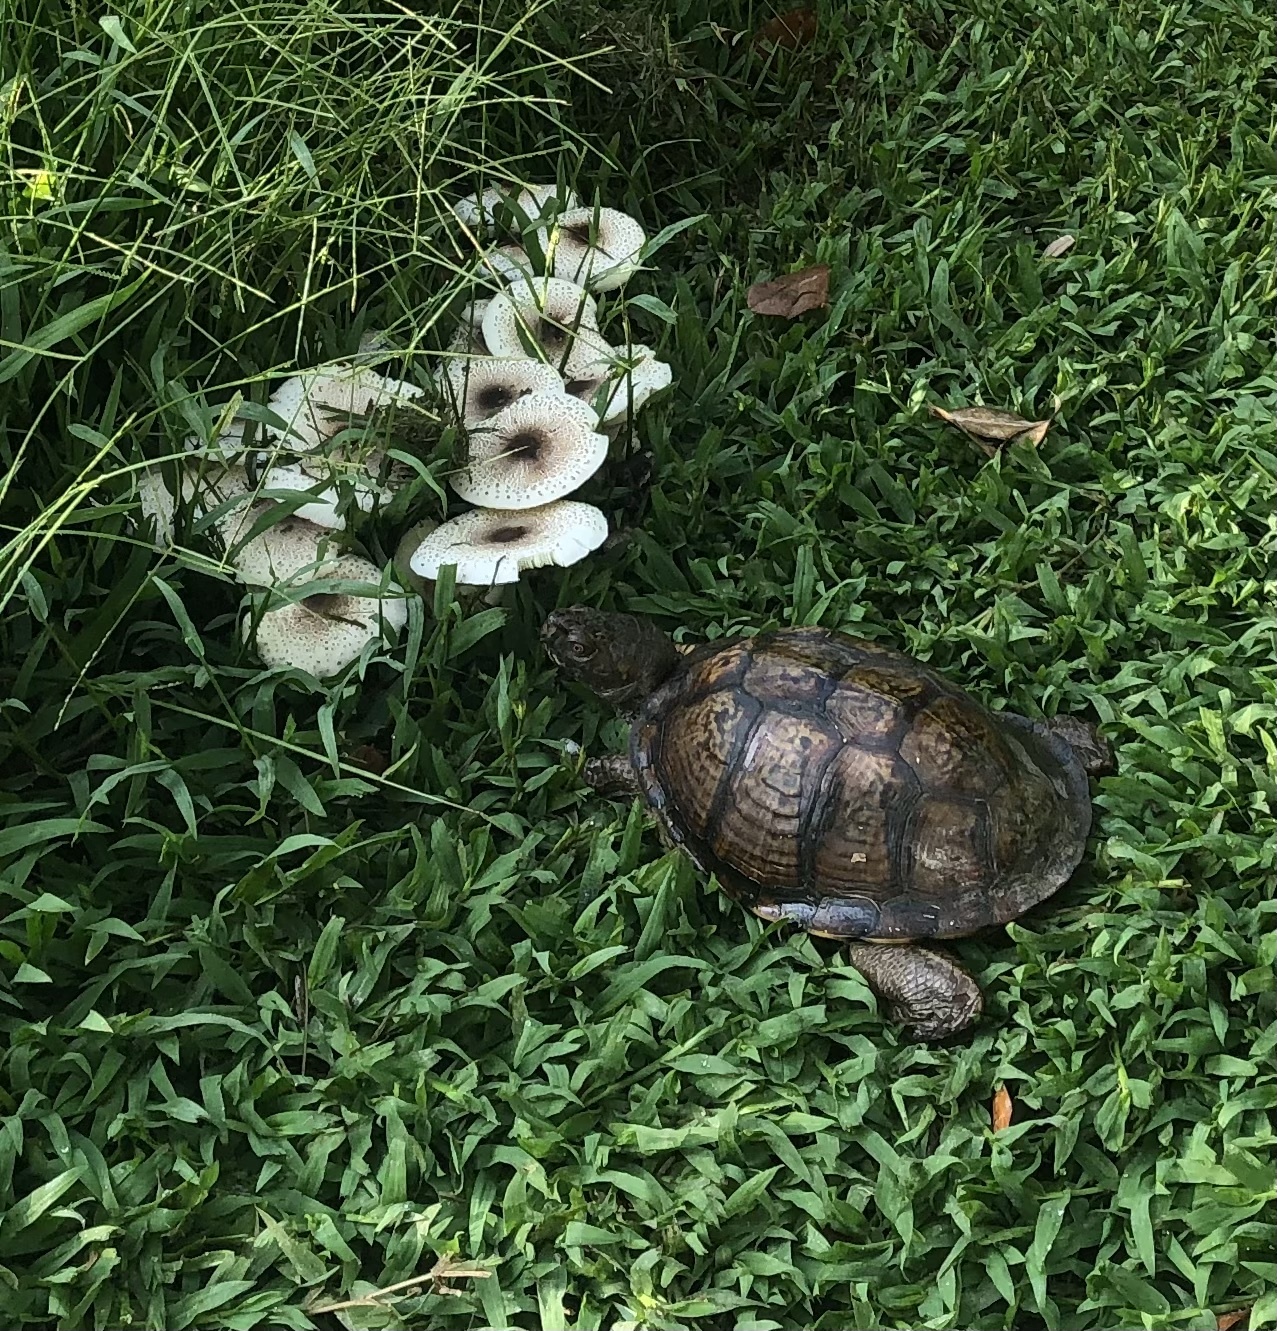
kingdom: Animalia
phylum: Chordata
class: Testudines
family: Emydidae
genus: Terrapene
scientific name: Terrapene carolina
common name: Common box turtle
